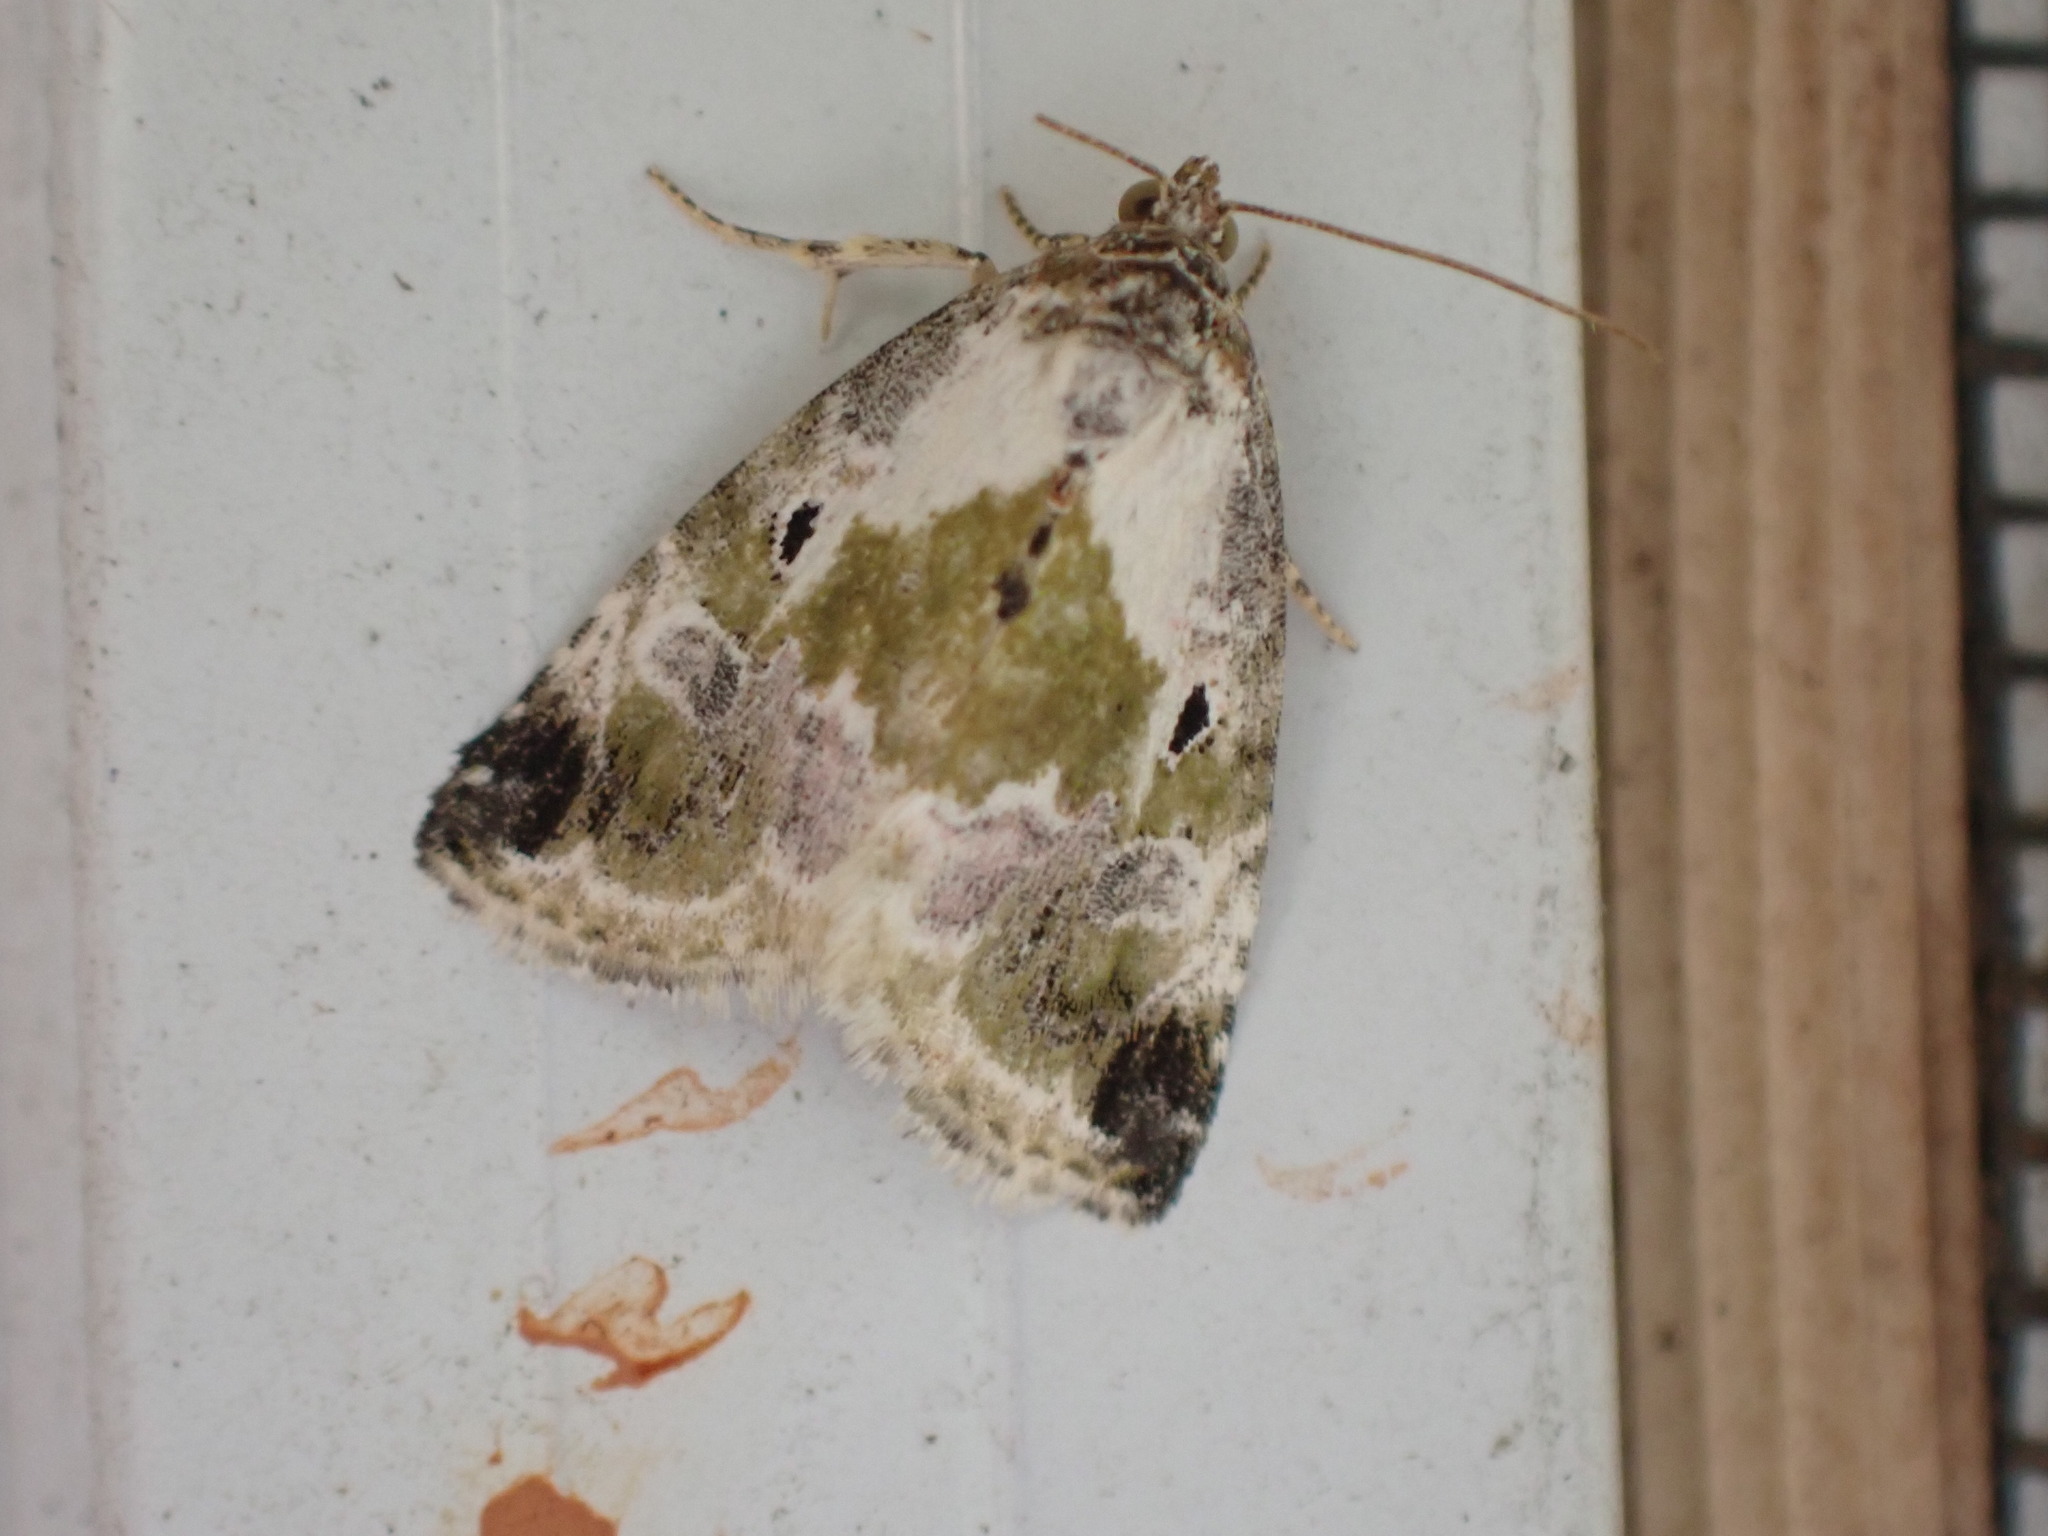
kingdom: Animalia
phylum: Arthropoda
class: Insecta
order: Lepidoptera
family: Noctuidae
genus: Maliattha
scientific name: Maliattha synochitis
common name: Black-dotted glyph
